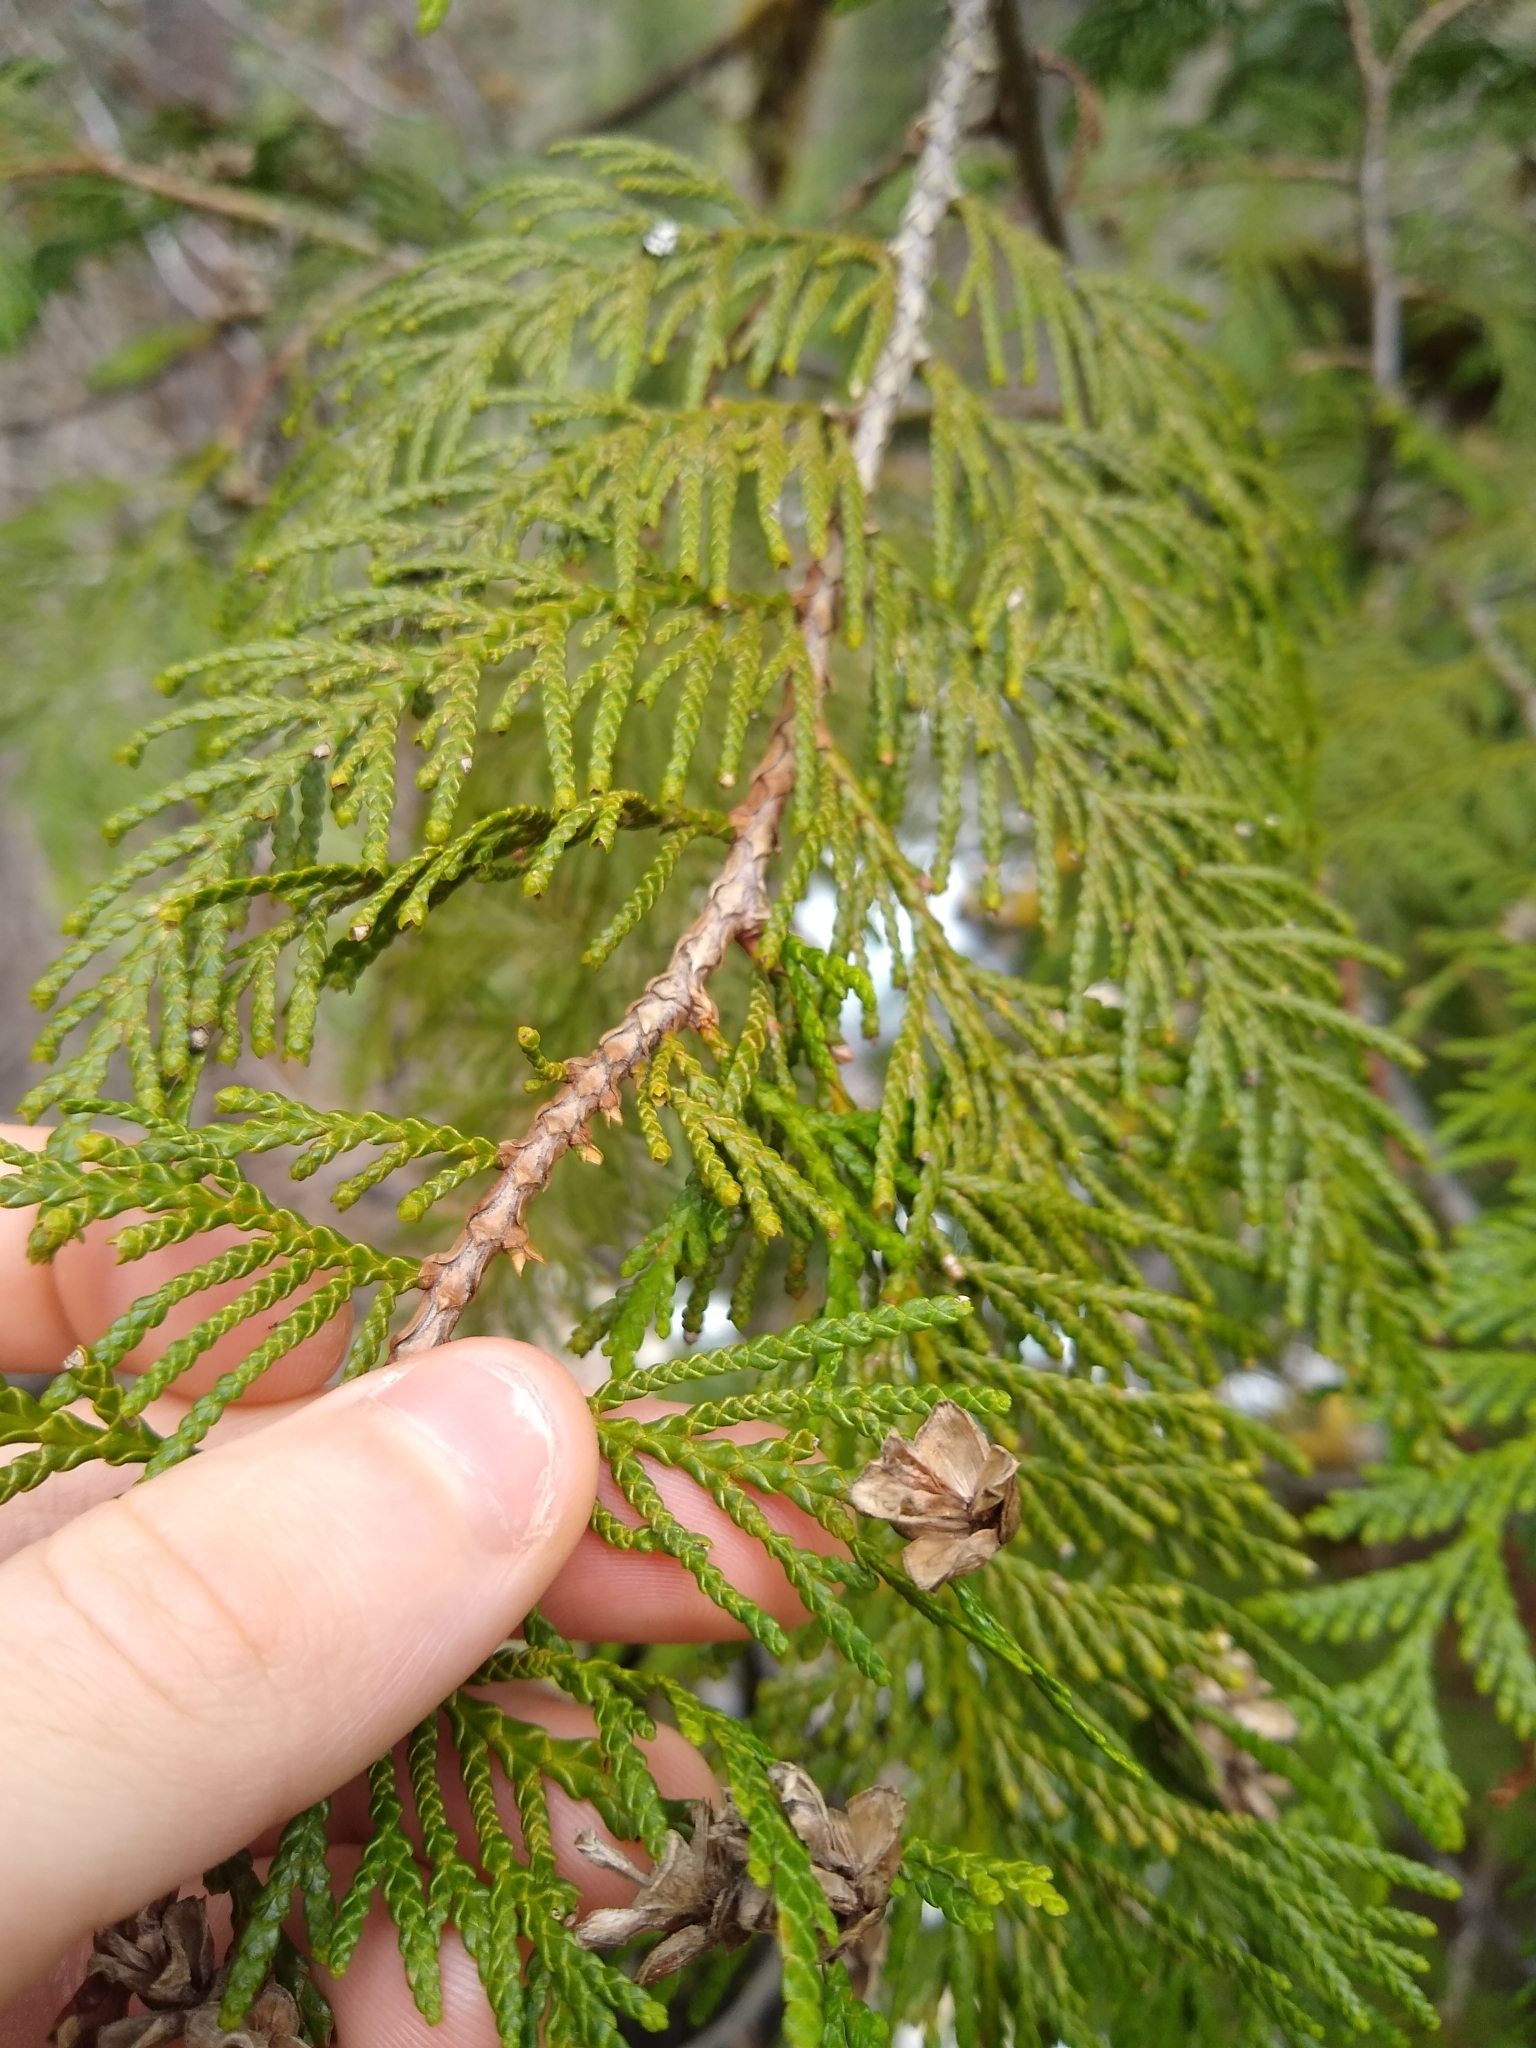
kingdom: Plantae
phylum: Tracheophyta
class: Pinopsida
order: Pinales
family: Cupressaceae
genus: Thuja
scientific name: Thuja plicata
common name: Western red-cedar
